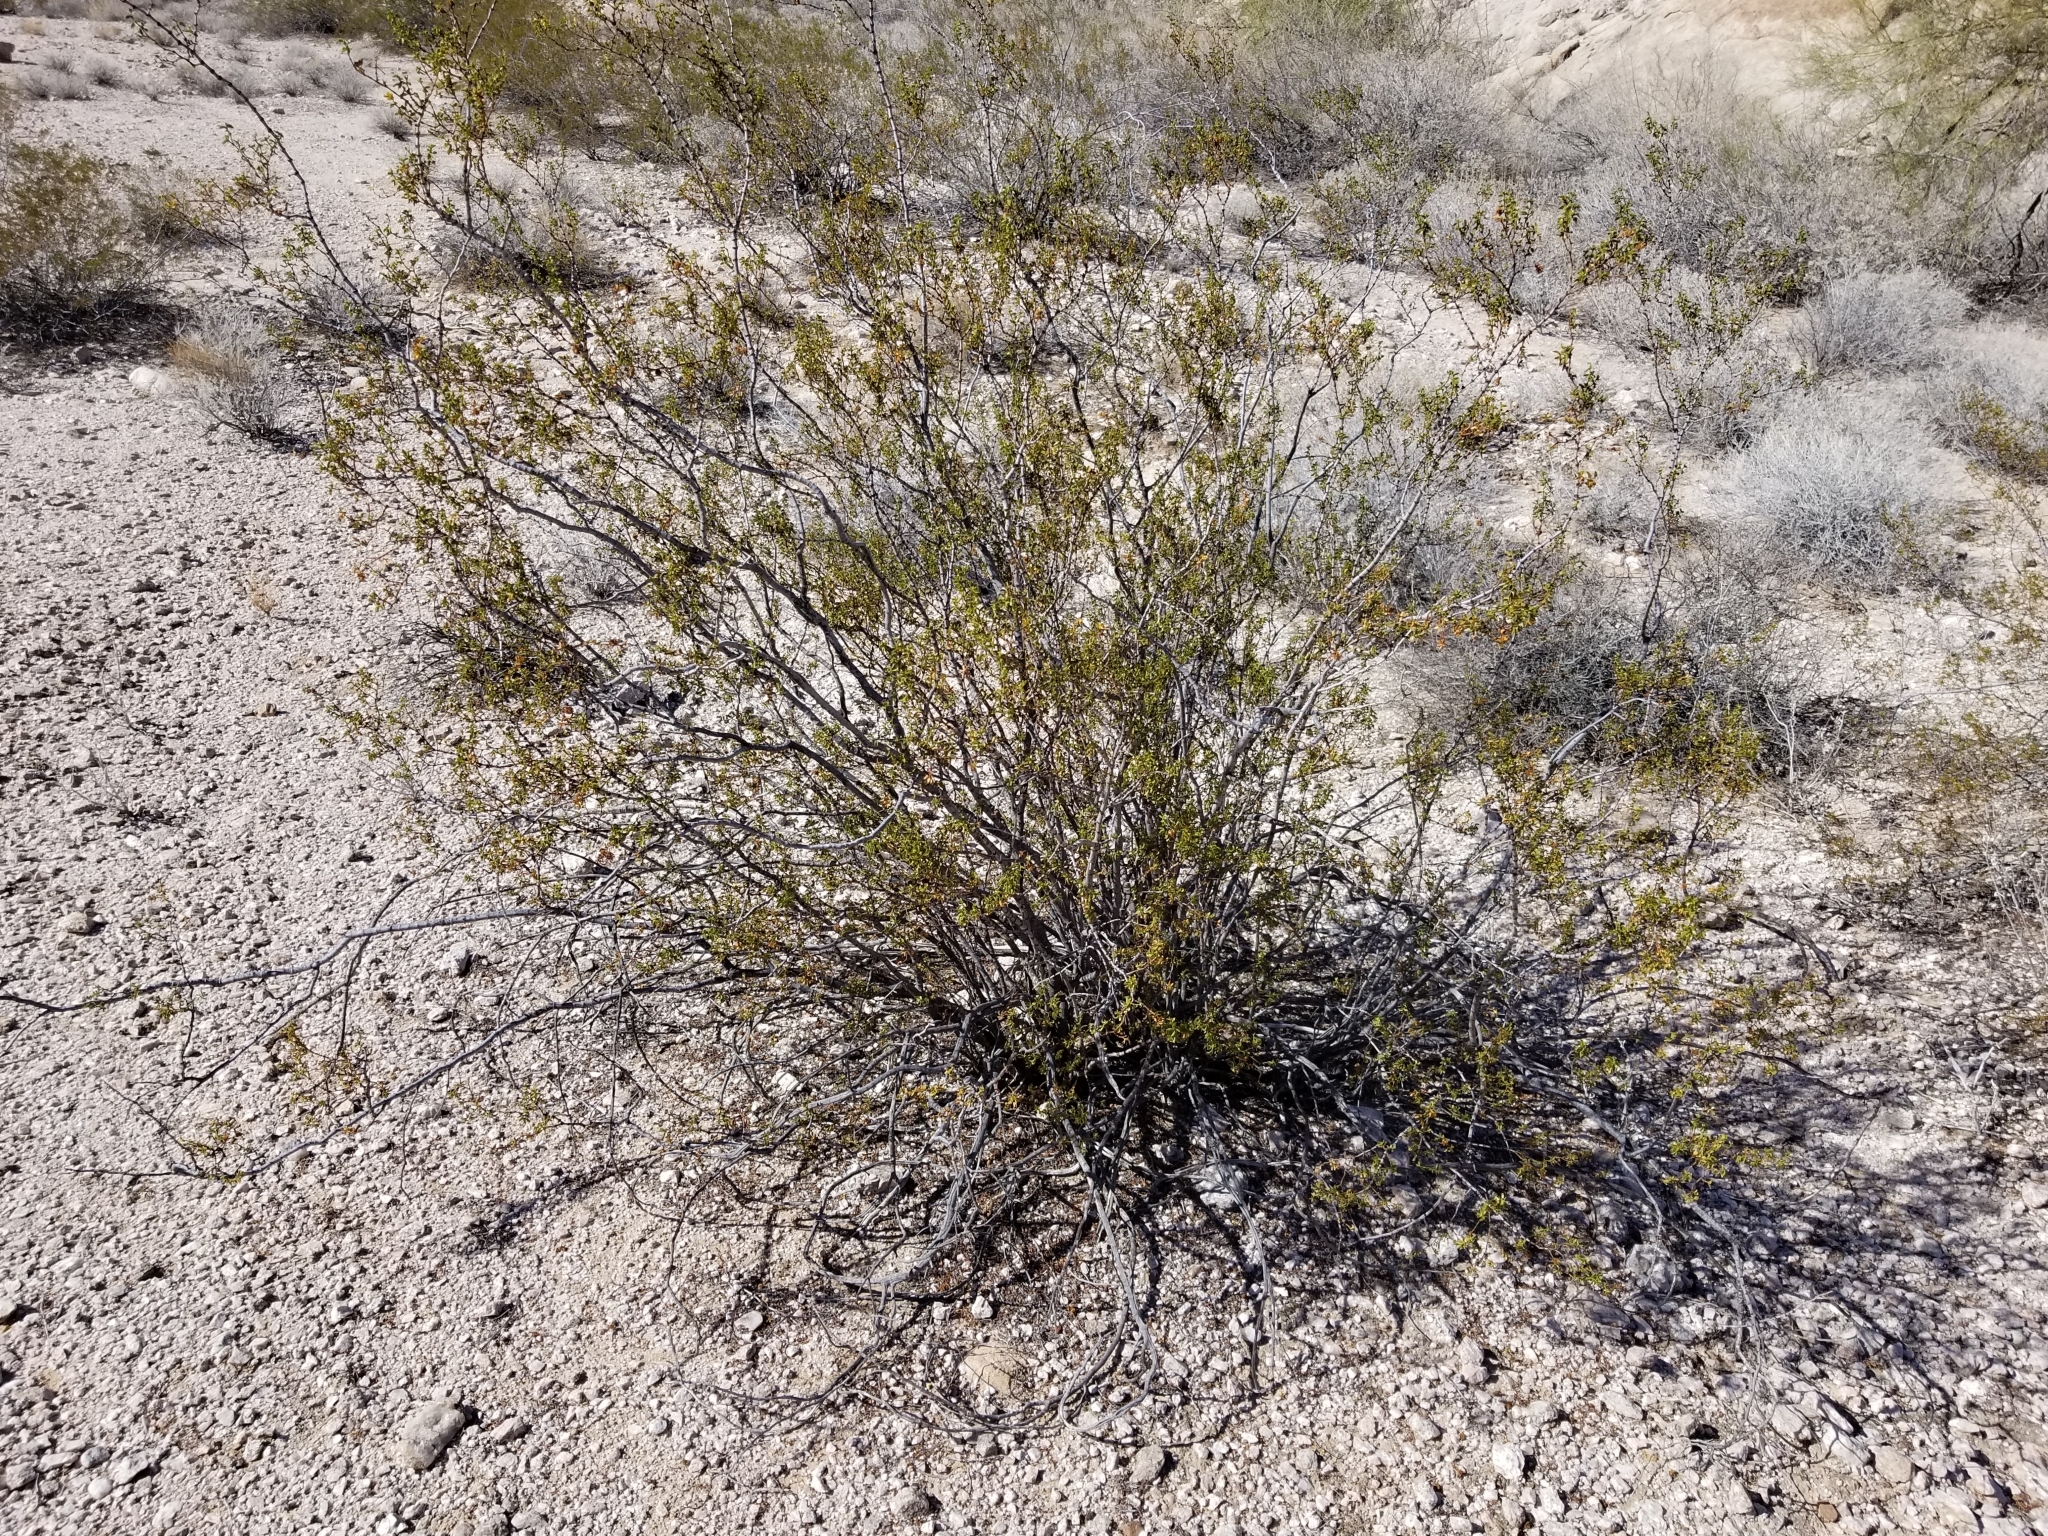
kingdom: Plantae
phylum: Tracheophyta
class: Magnoliopsida
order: Zygophyllales
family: Zygophyllaceae
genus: Larrea
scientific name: Larrea tridentata
